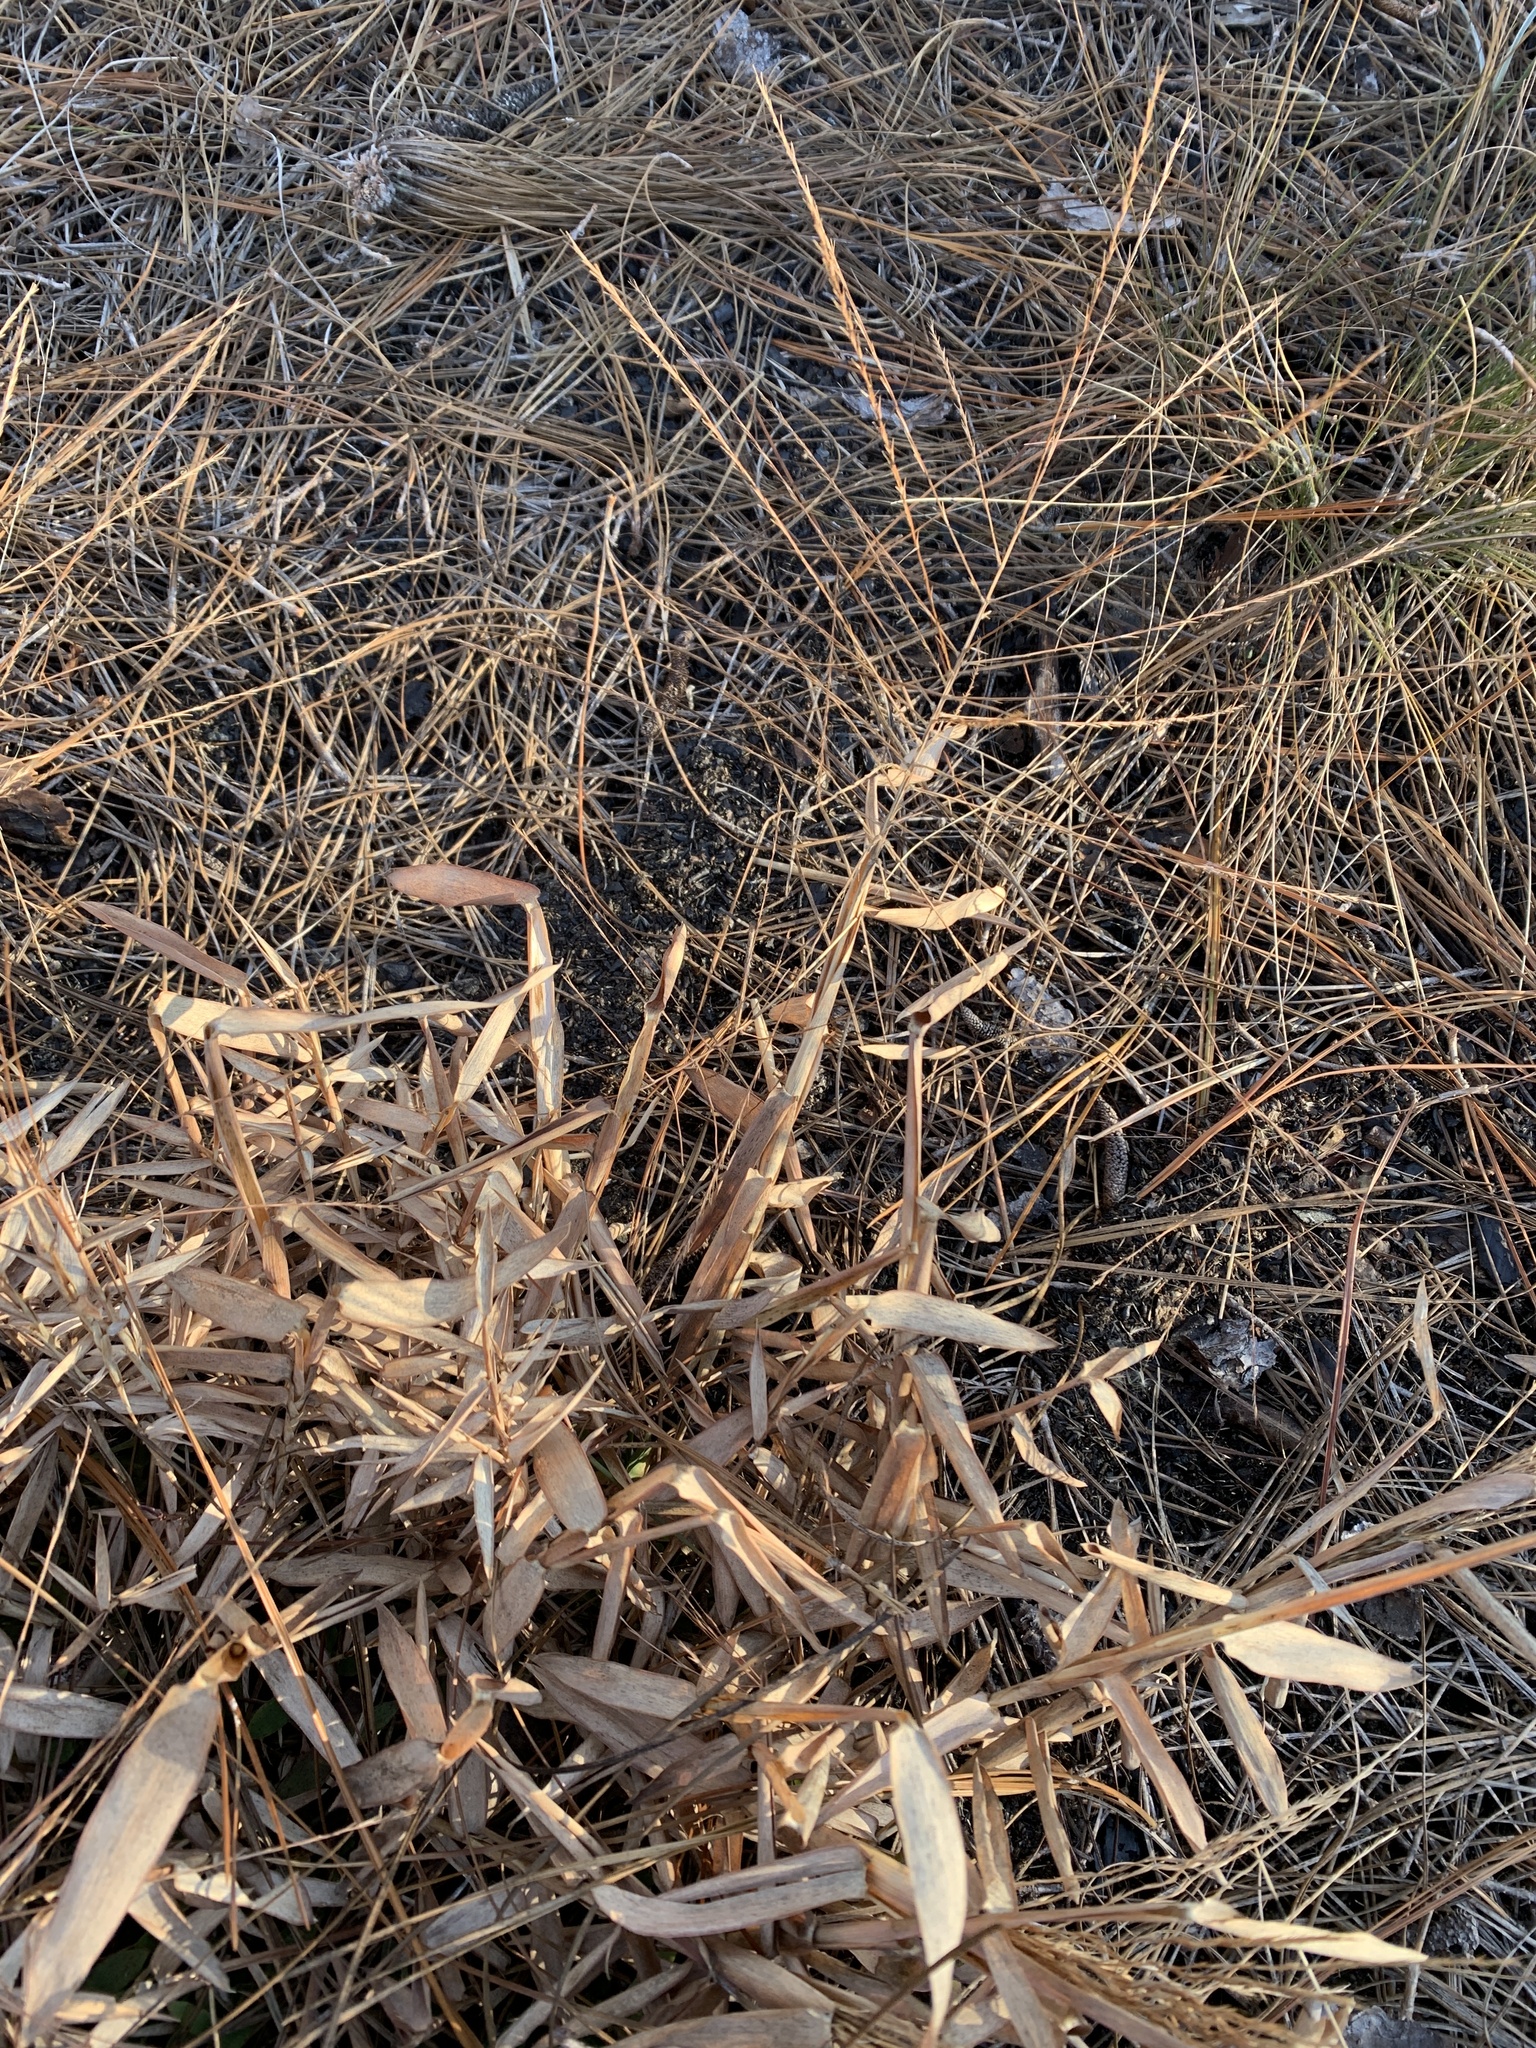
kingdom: Plantae
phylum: Tracheophyta
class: Liliopsida
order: Poales
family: Poaceae
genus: Gymnopogon
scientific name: Gymnopogon ambiguus
